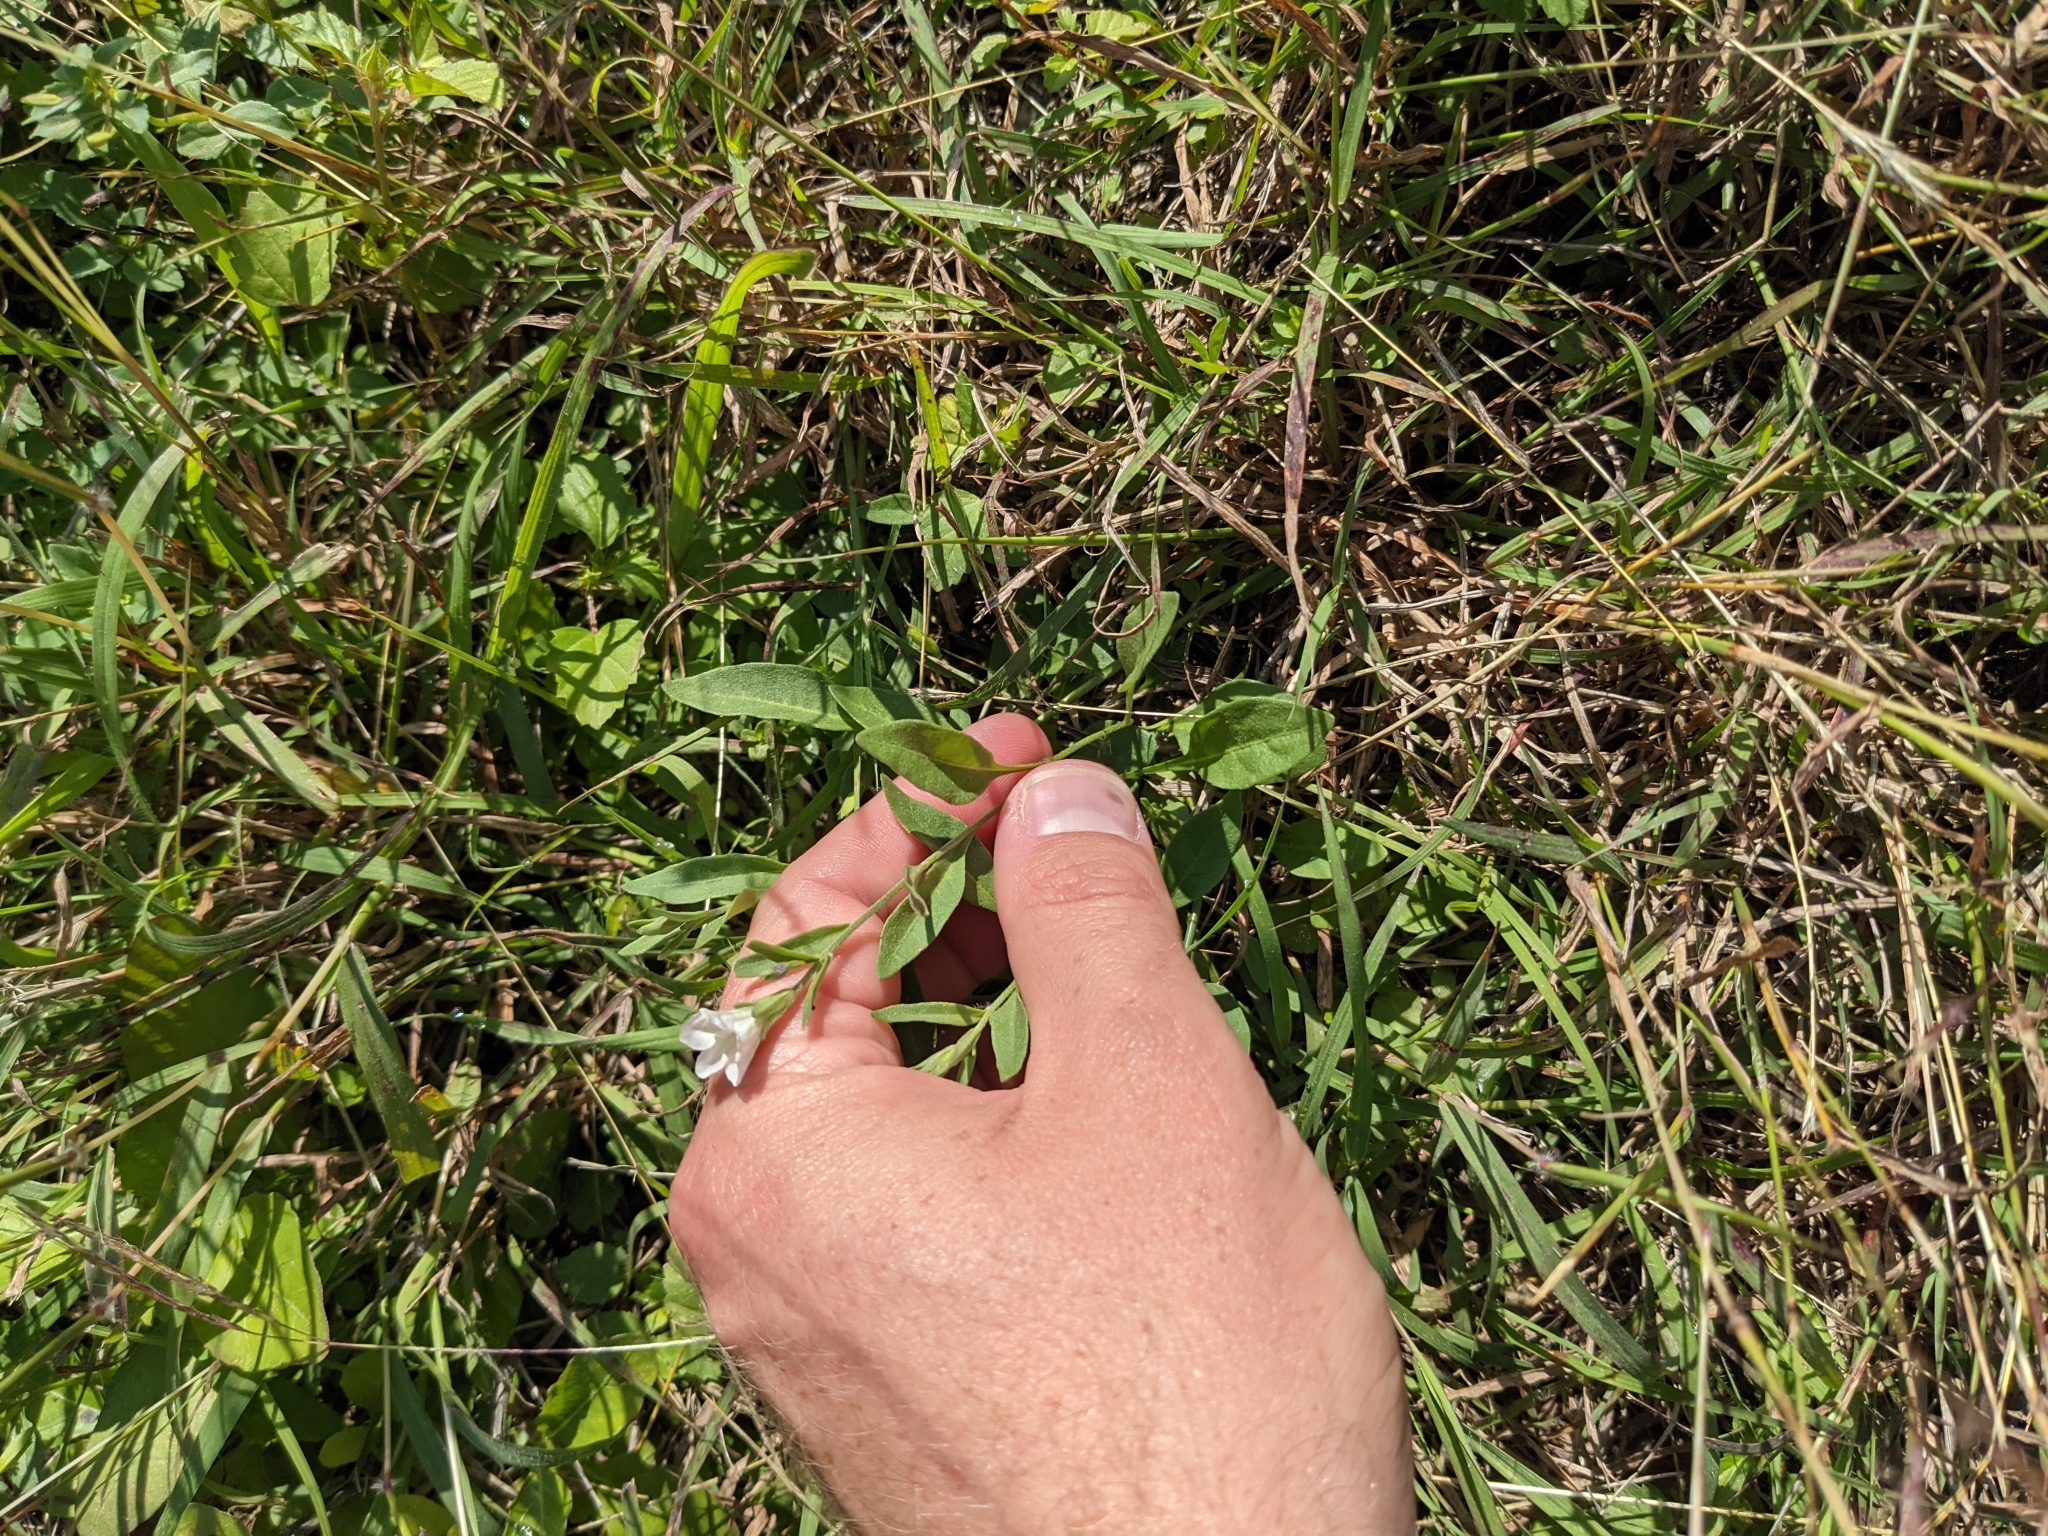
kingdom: Plantae
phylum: Tracheophyta
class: Magnoliopsida
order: Solanales
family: Solanaceae
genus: Salpiglossis
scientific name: Salpiglossis erecta
